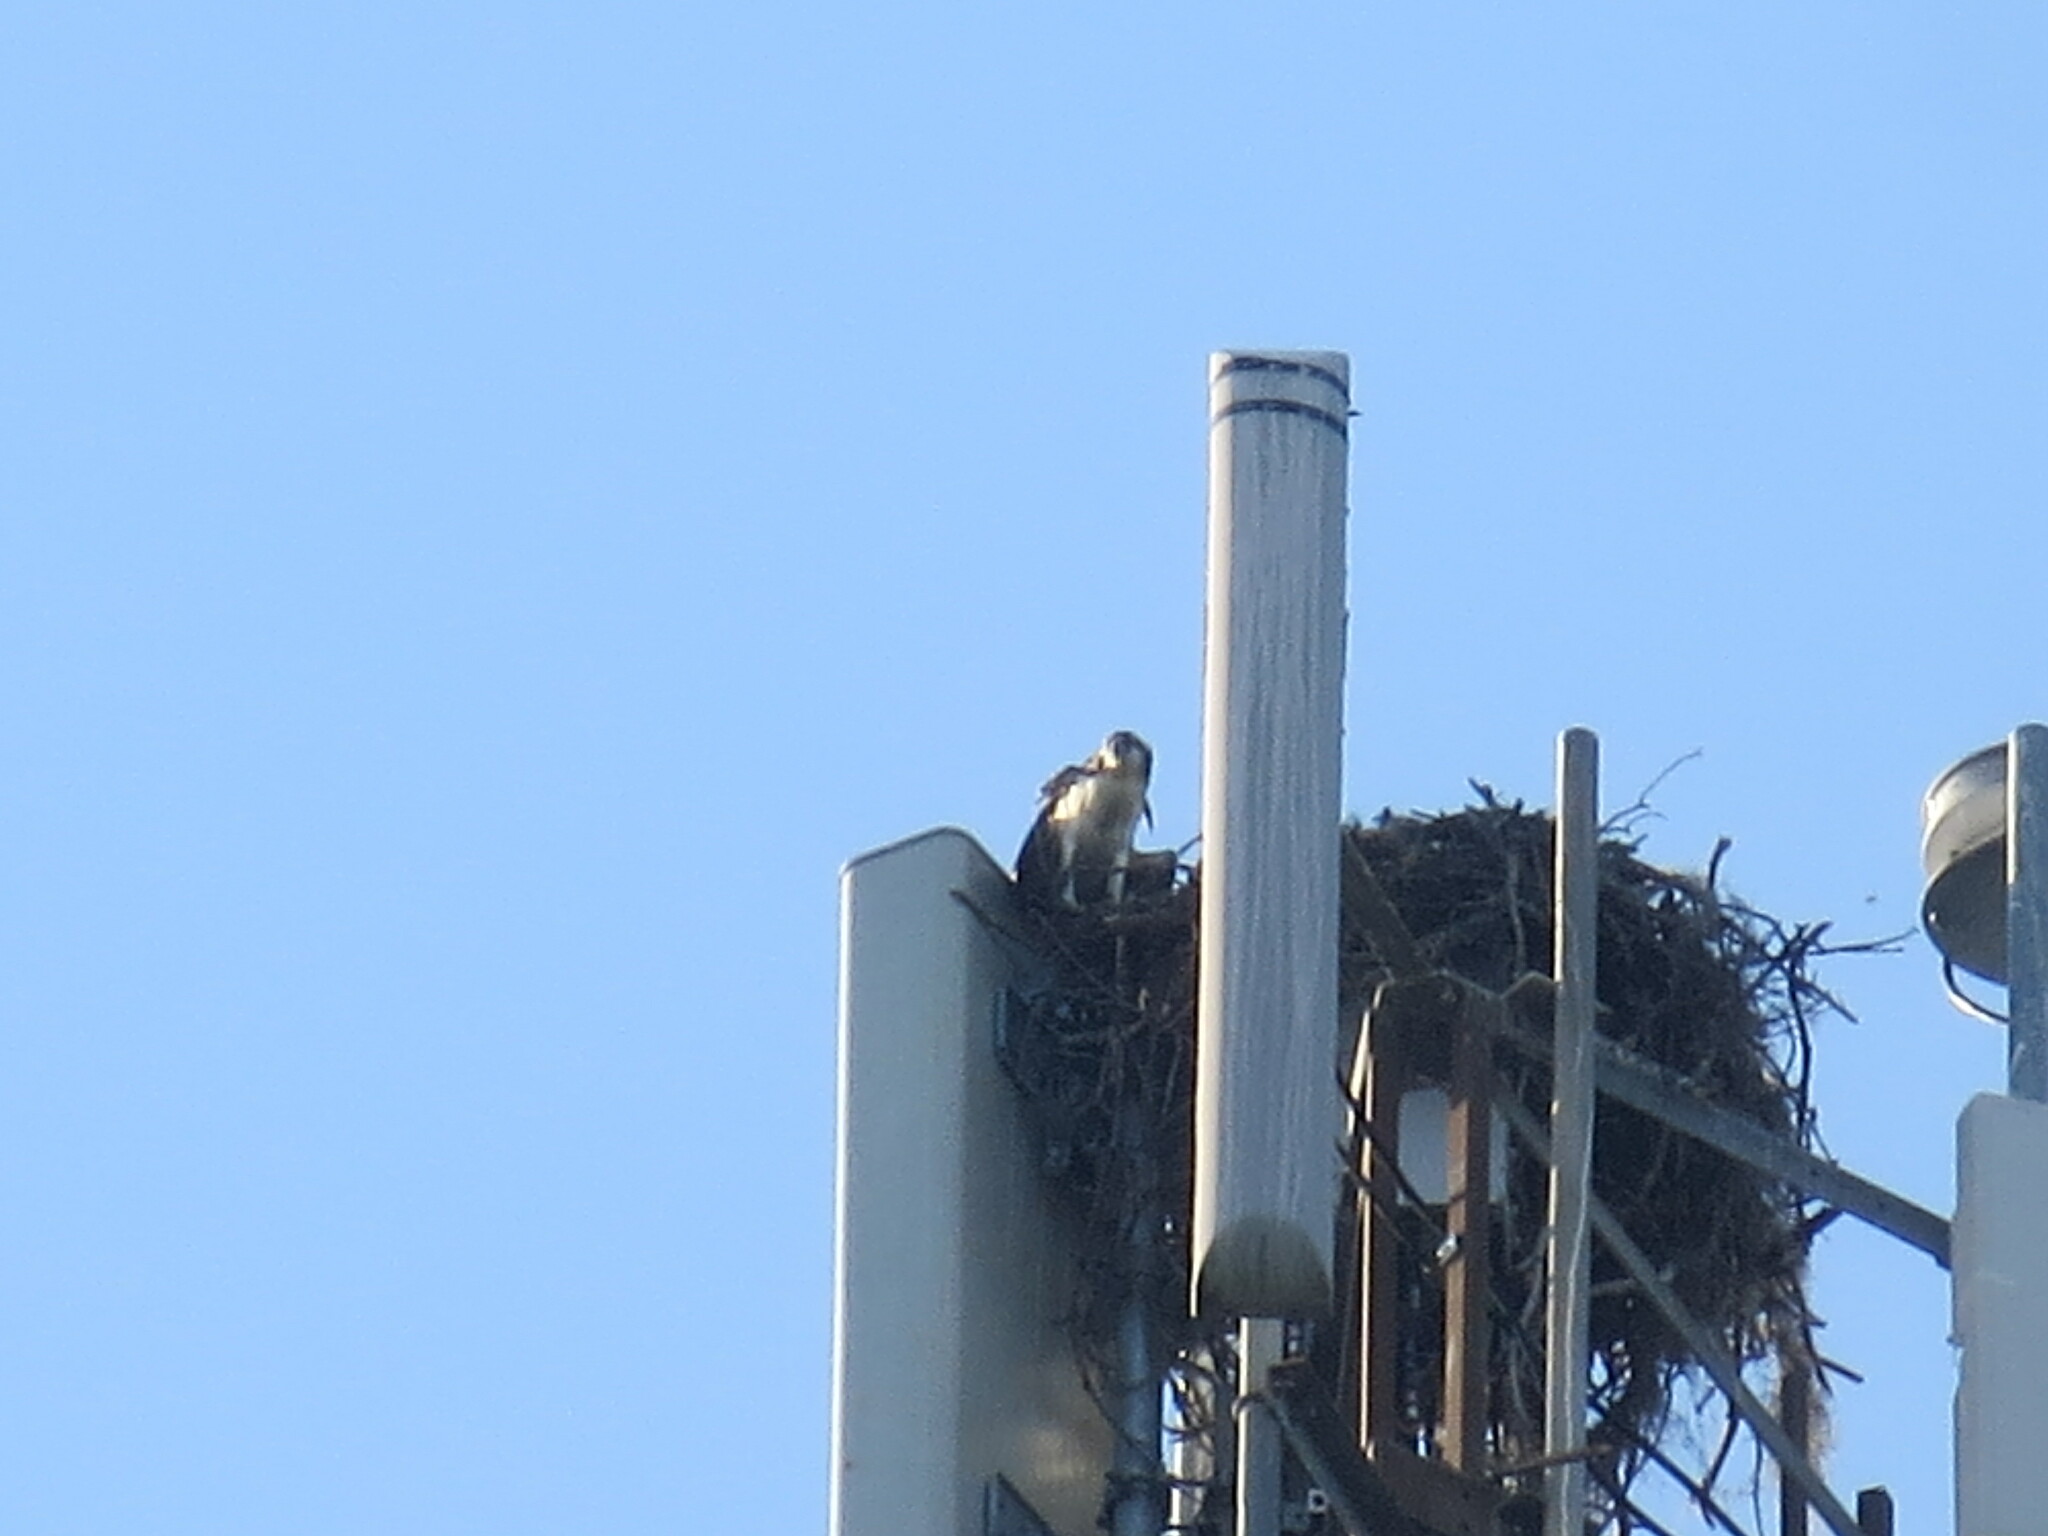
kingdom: Animalia
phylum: Chordata
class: Aves
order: Accipitriformes
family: Pandionidae
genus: Pandion
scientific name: Pandion haliaetus
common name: Osprey
